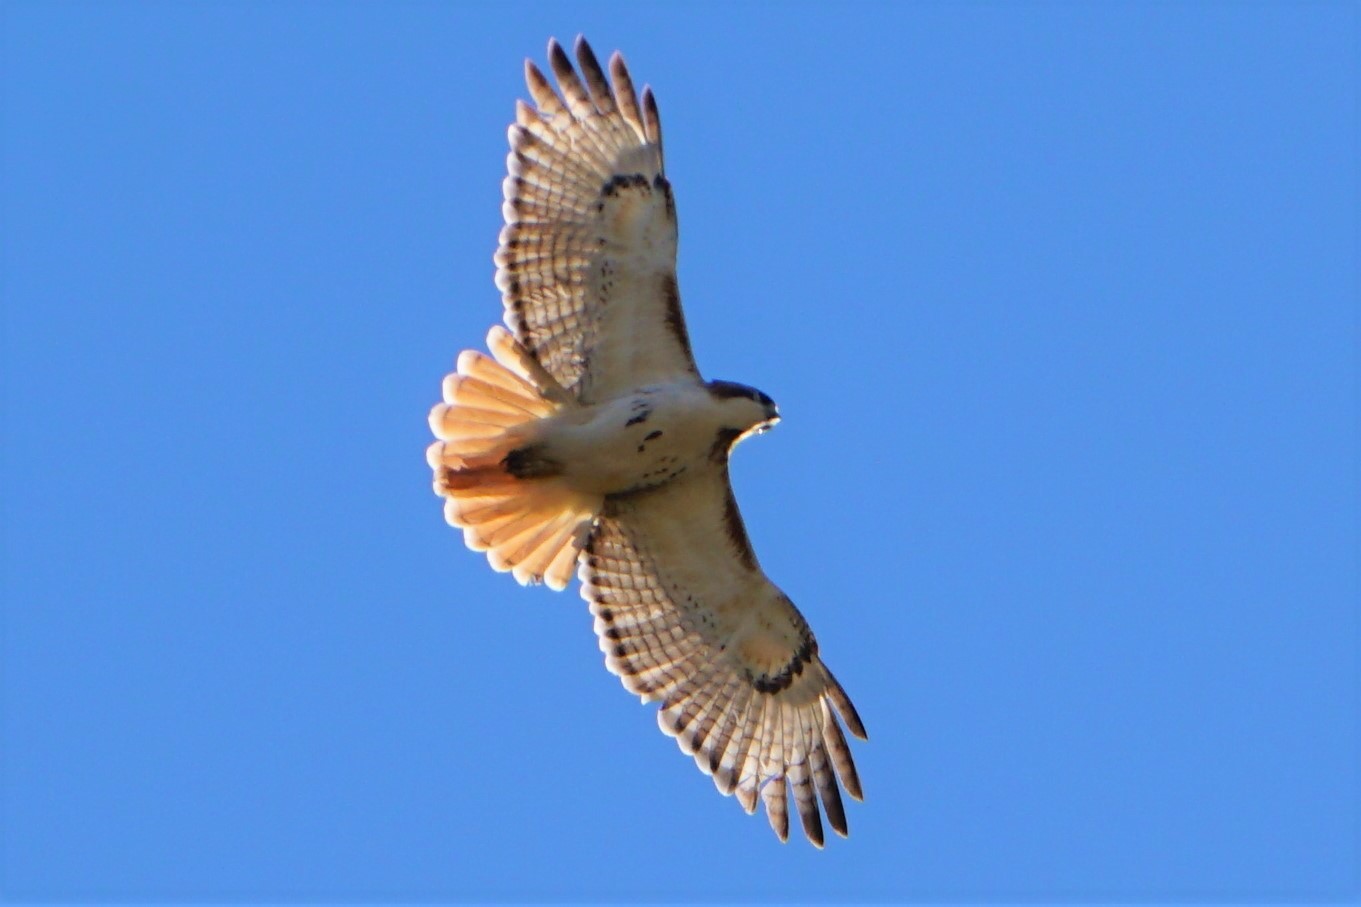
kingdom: Animalia
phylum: Chordata
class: Aves
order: Accipitriformes
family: Accipitridae
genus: Buteo
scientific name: Buteo jamaicensis
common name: Red-tailed hawk
